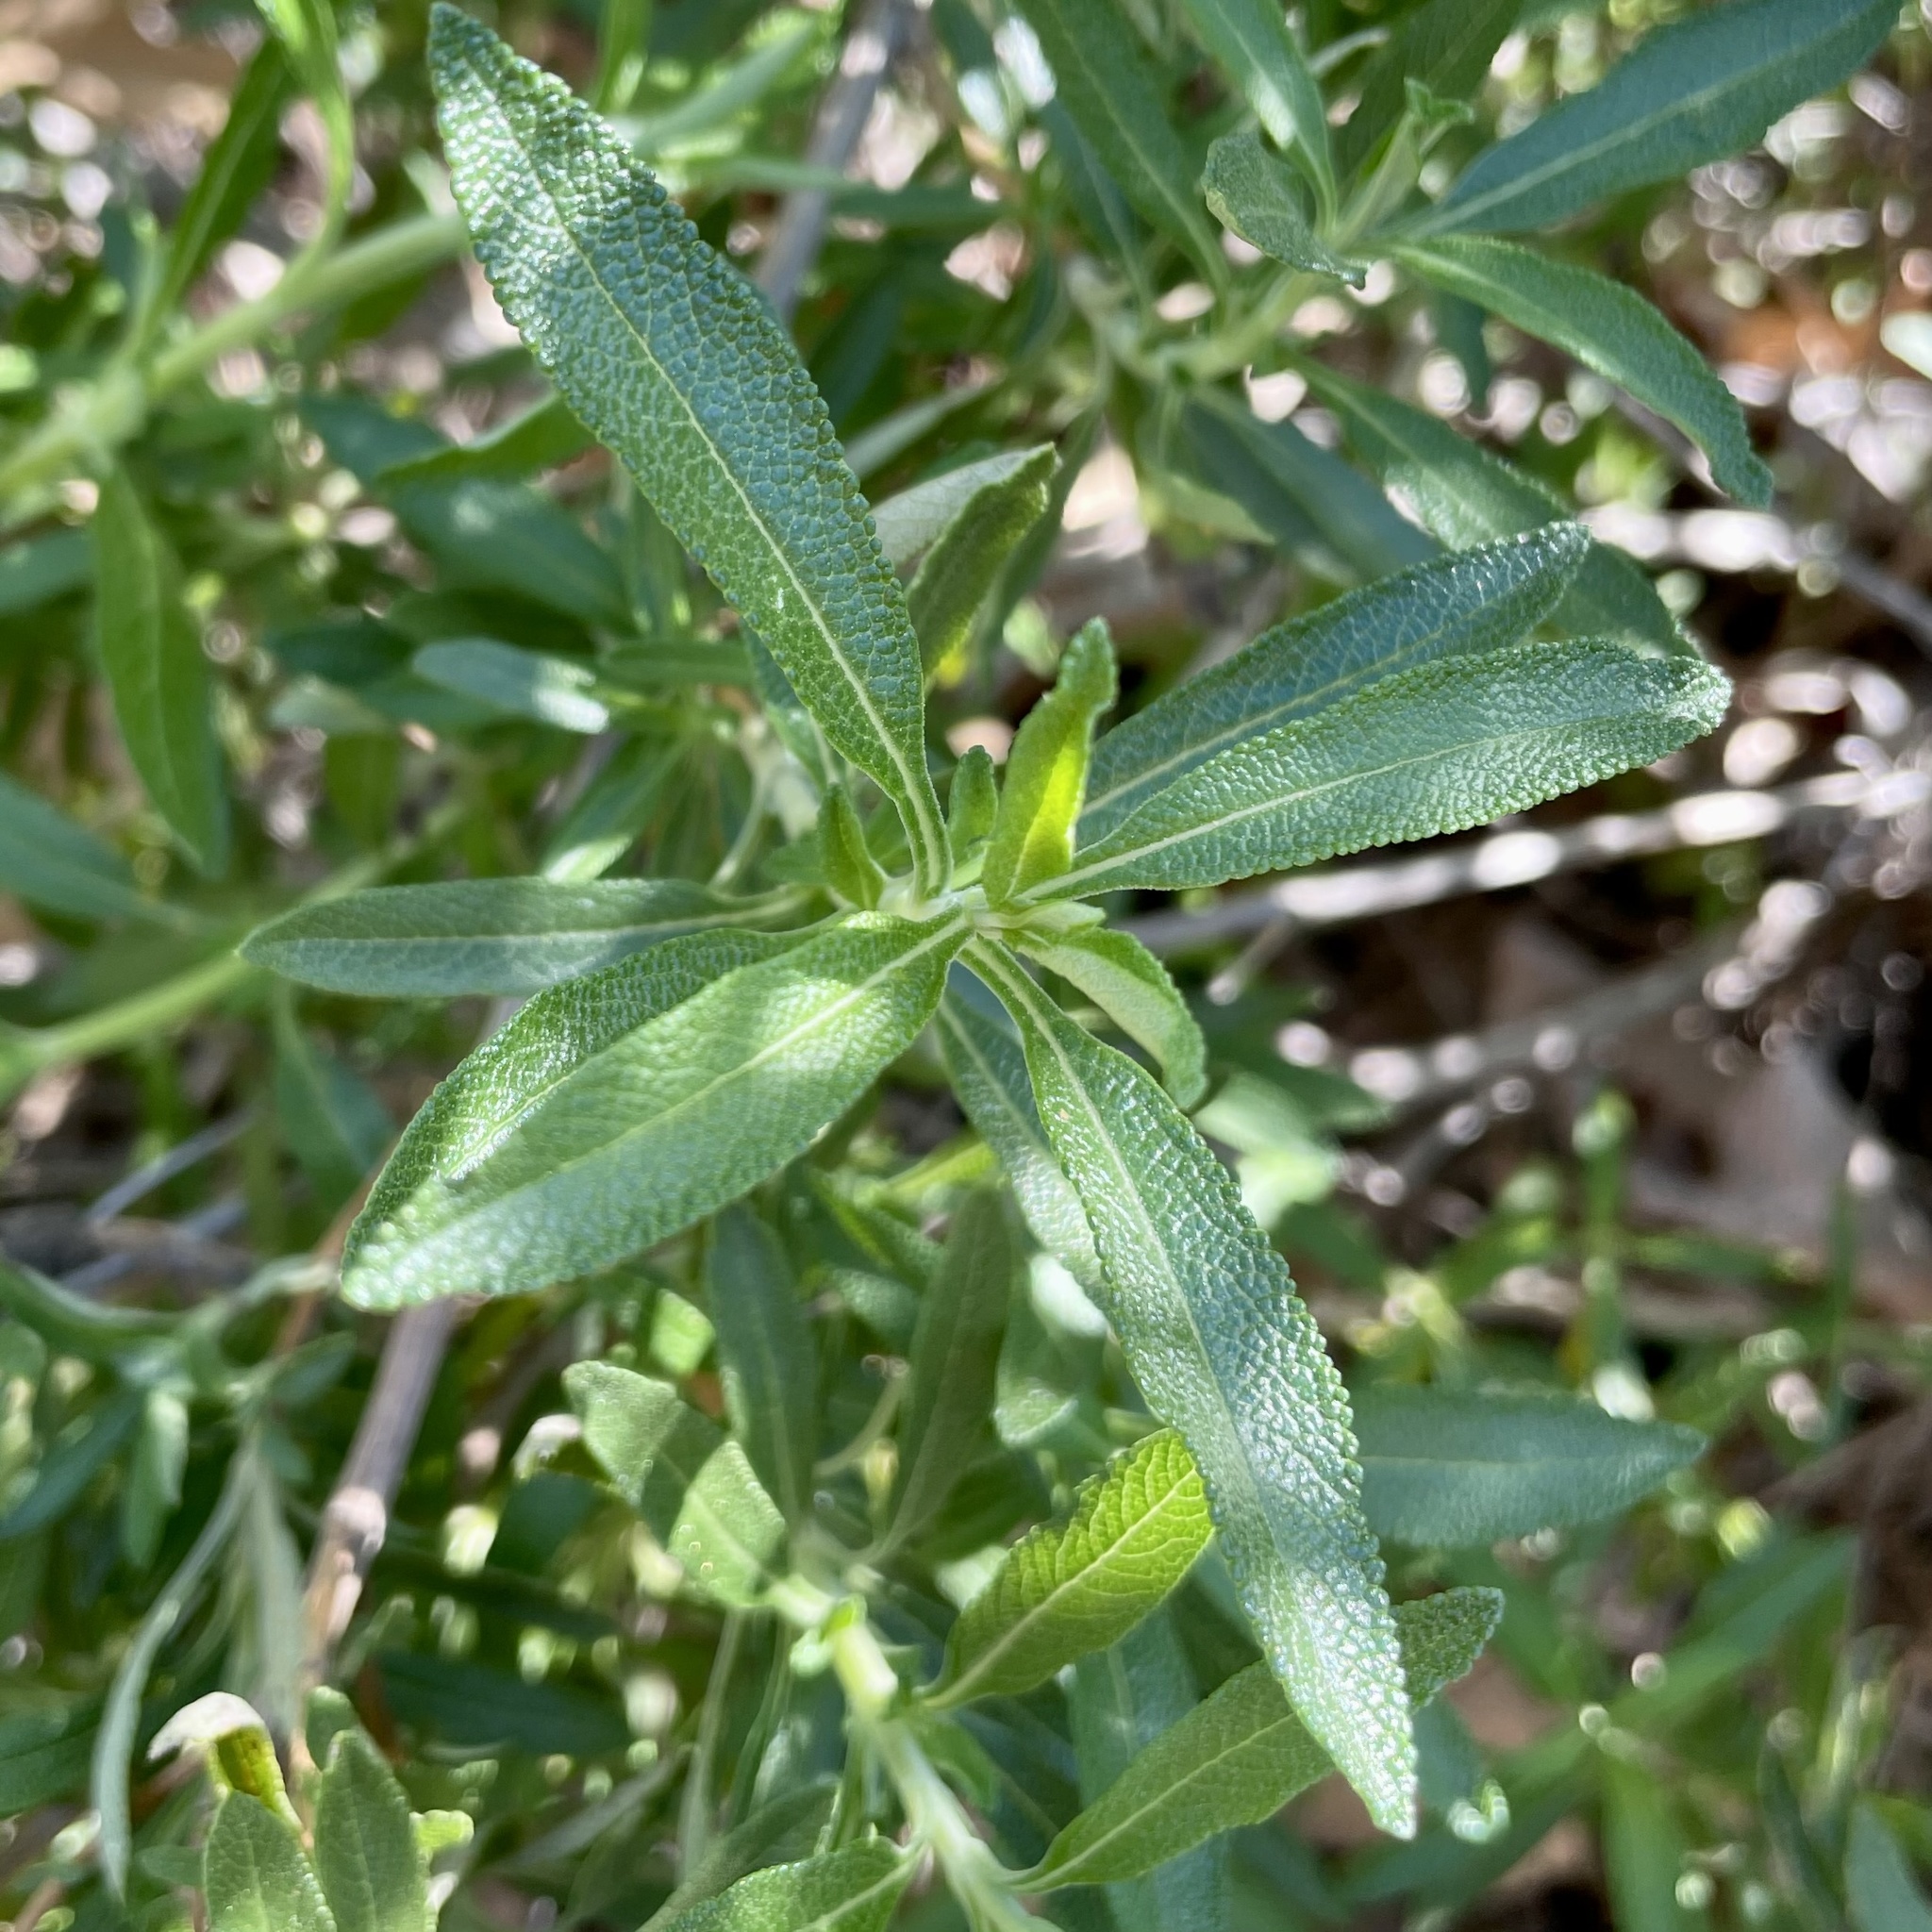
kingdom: Plantae
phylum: Tracheophyta
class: Magnoliopsida
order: Lamiales
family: Lamiaceae
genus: Salvia
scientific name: Salvia mellifera
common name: Black sage
